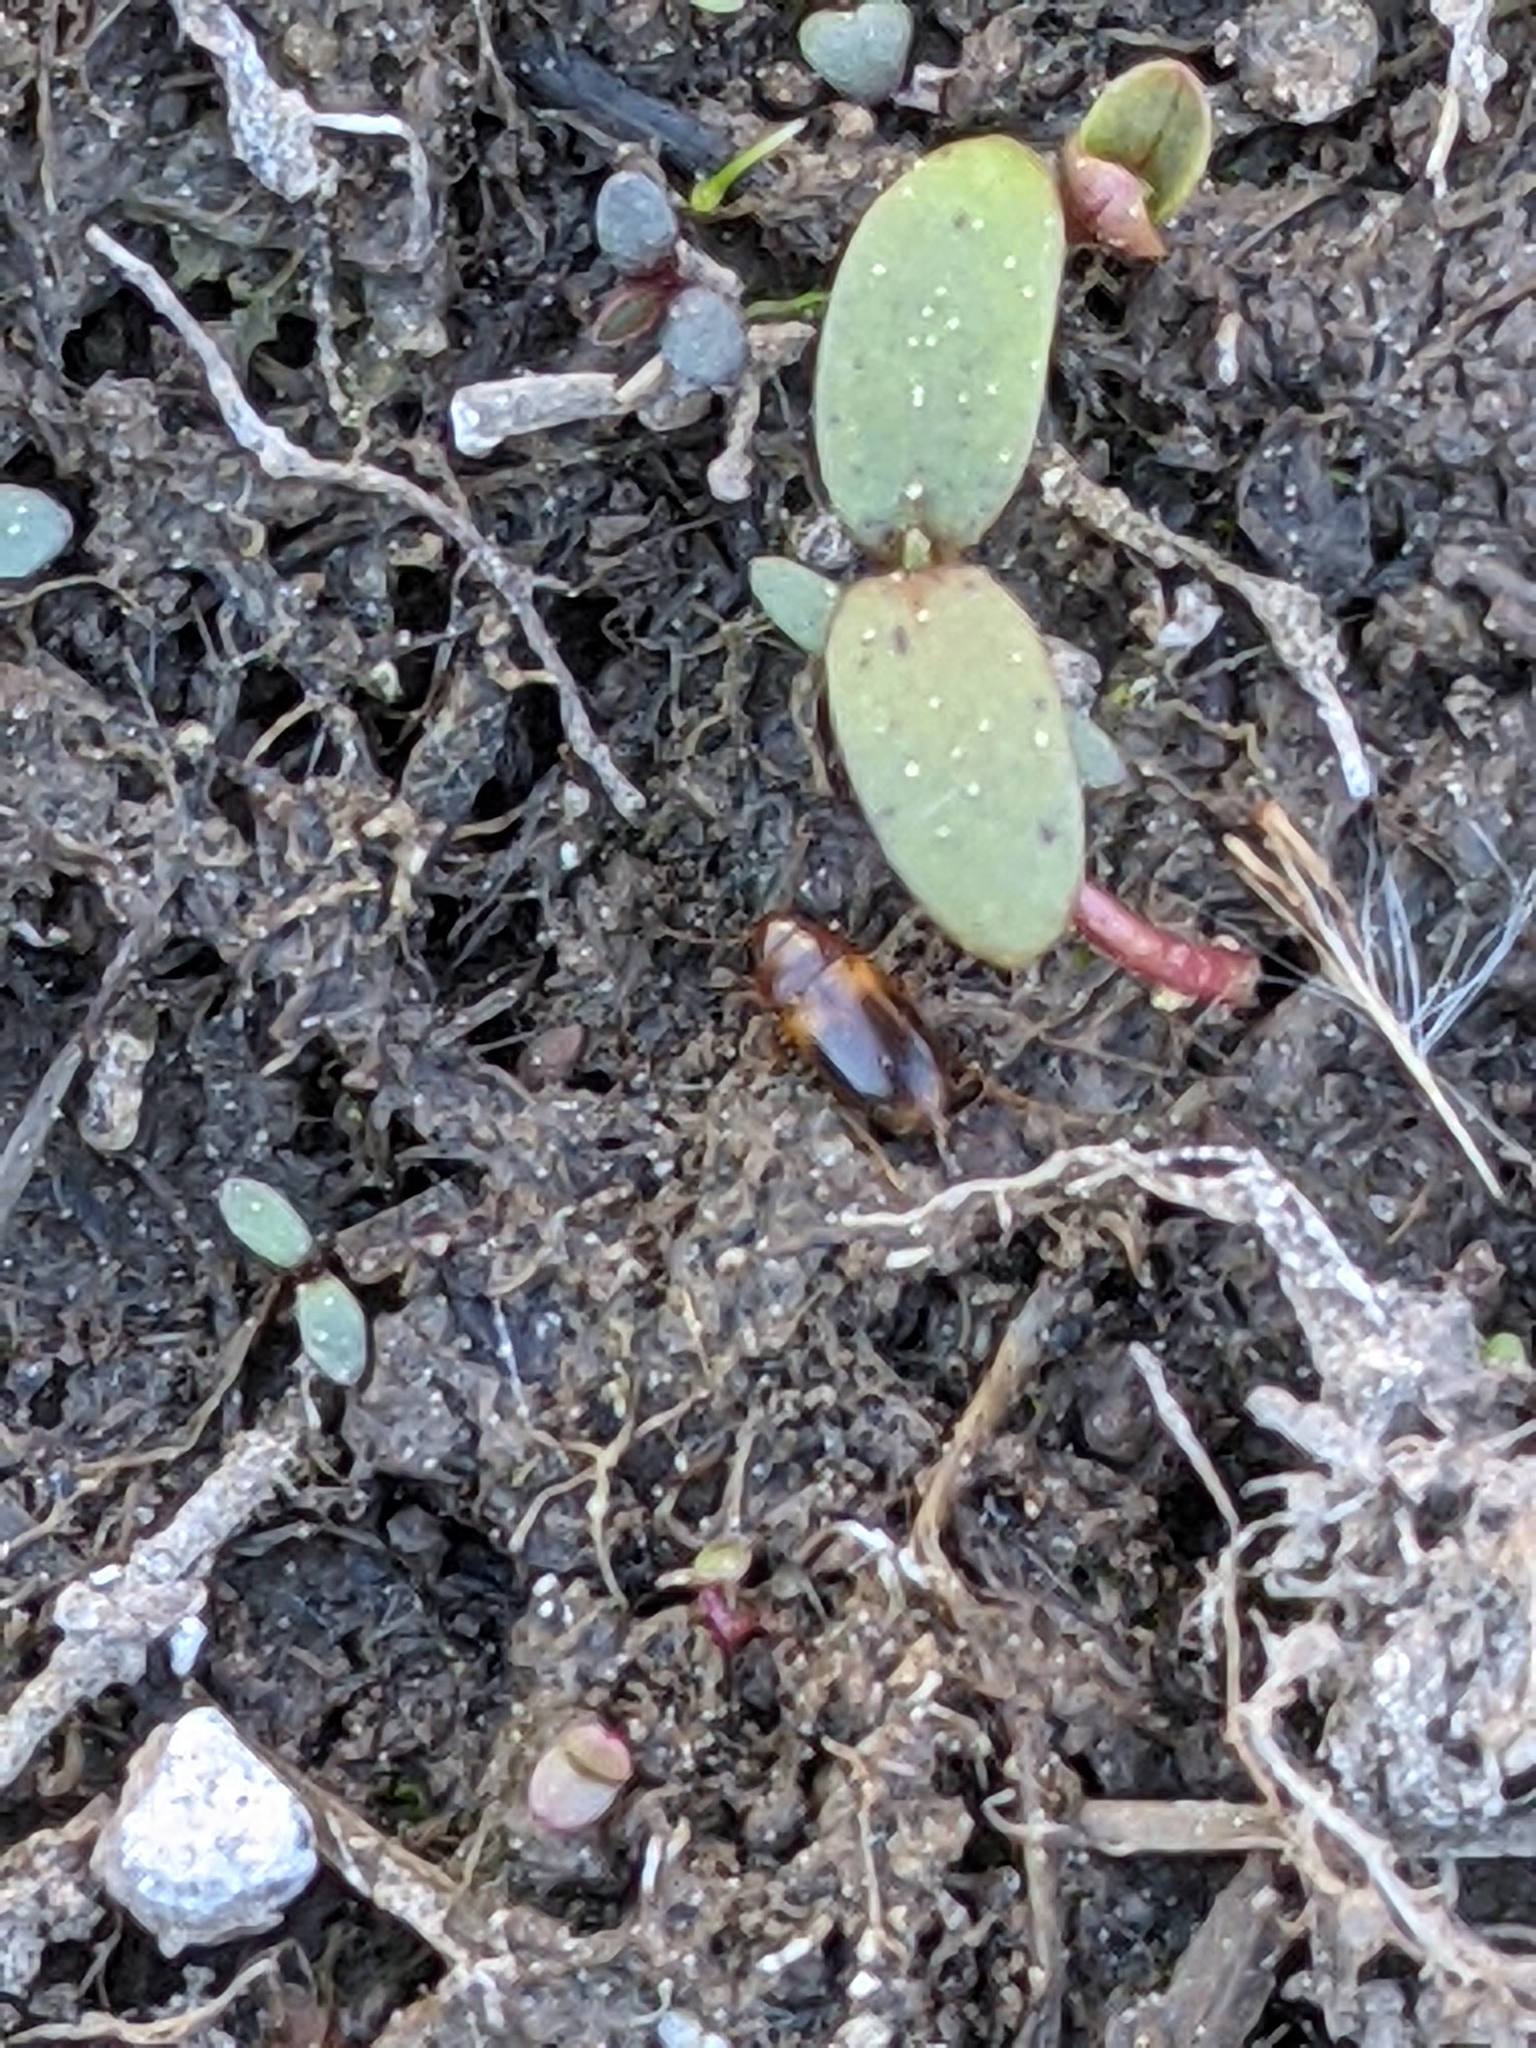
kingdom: Animalia
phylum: Arthropoda
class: Insecta
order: Coleoptera
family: Dytiscidae
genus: Celina
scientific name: Celina hubbelli
